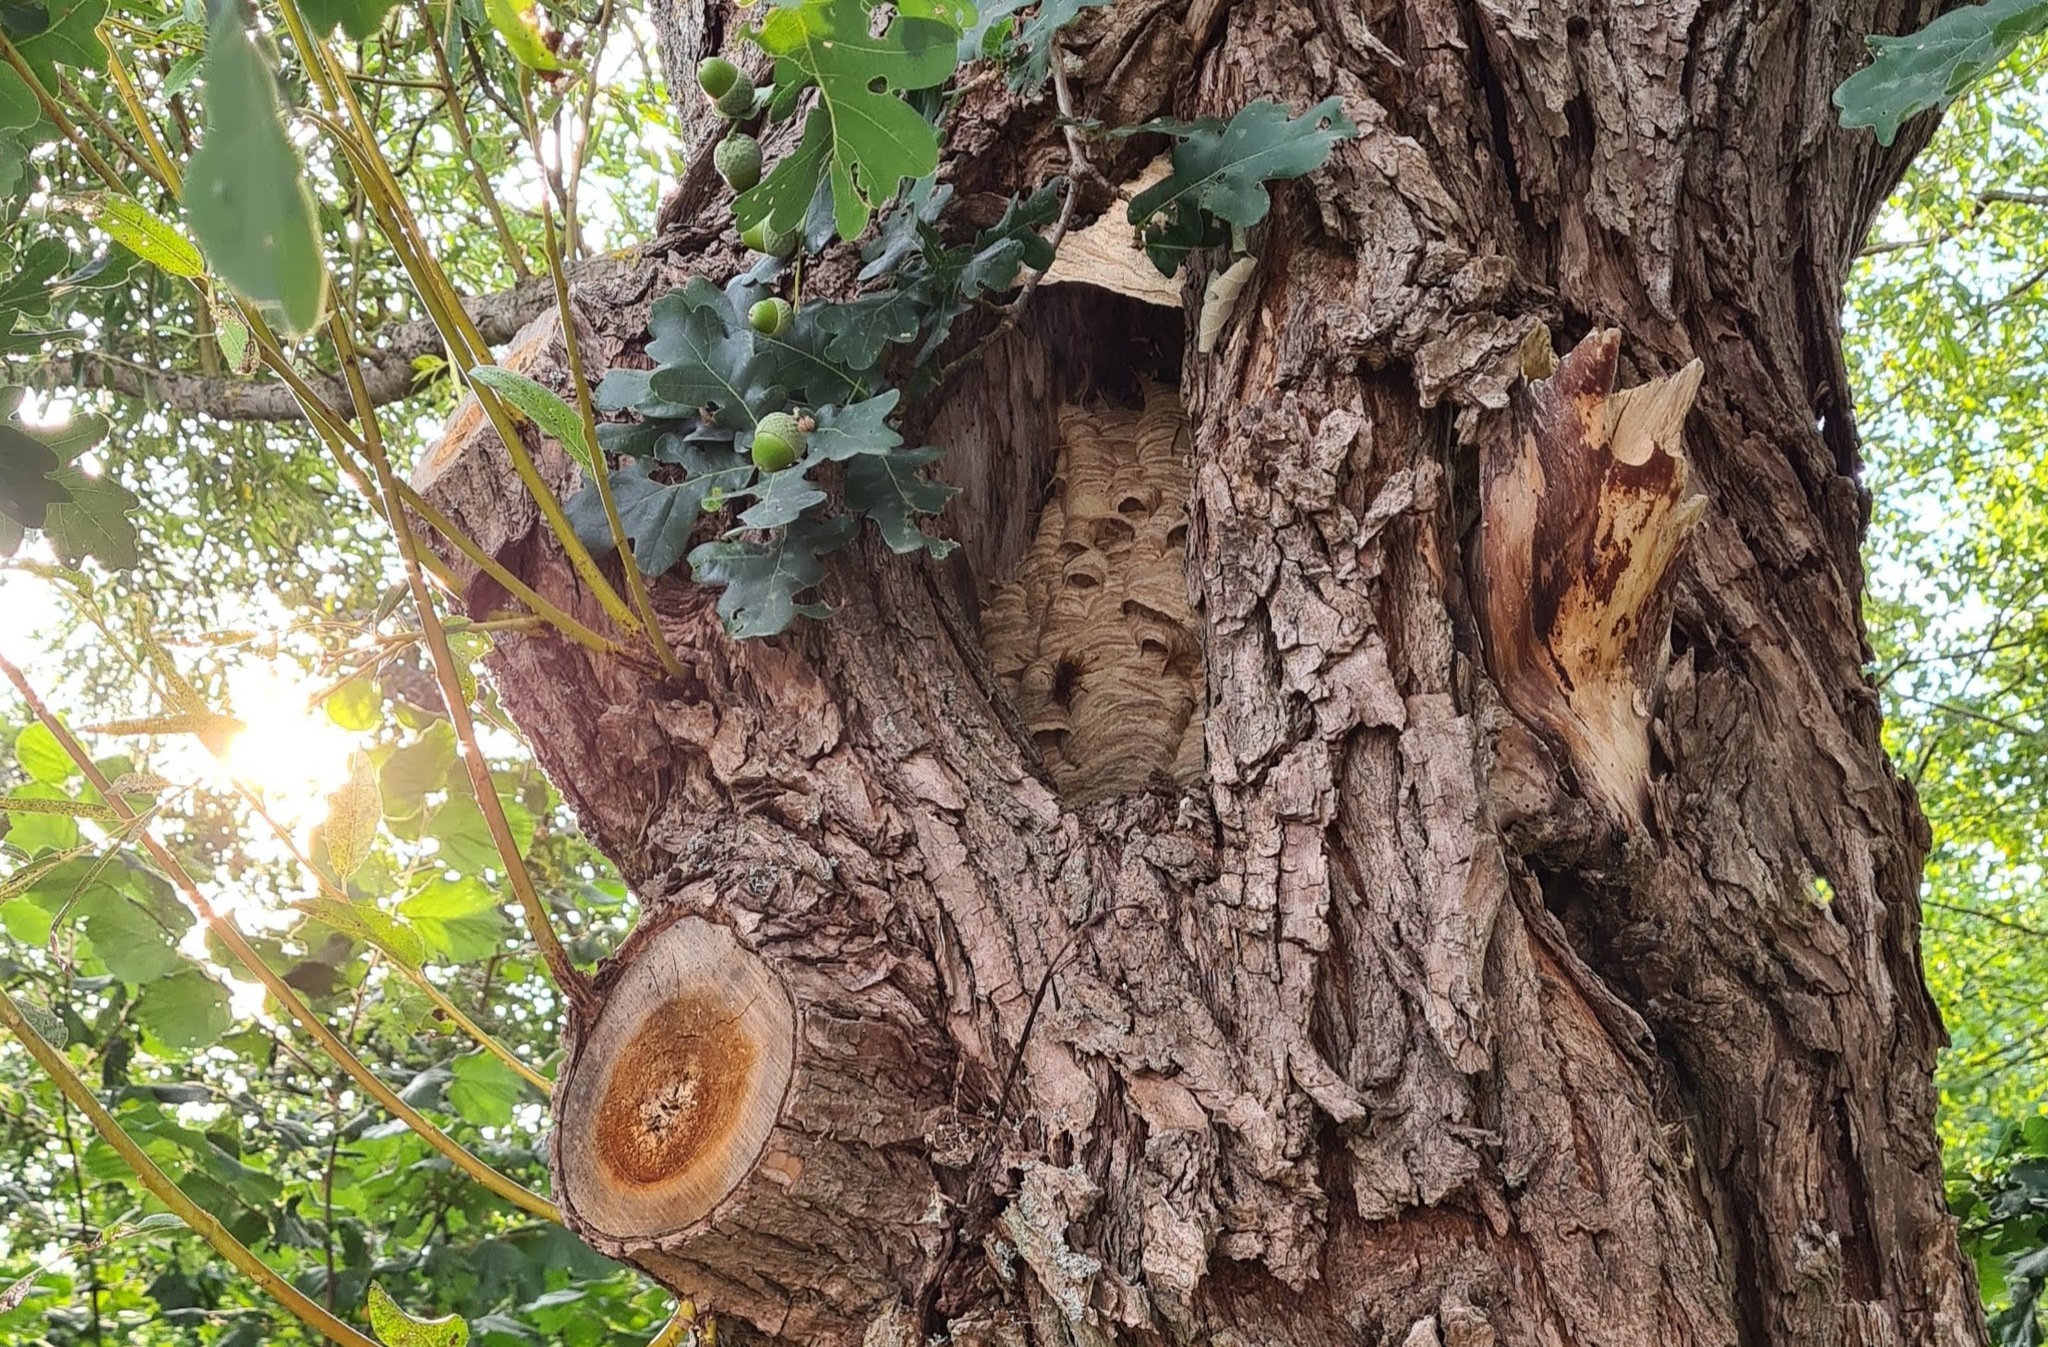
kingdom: Animalia
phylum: Arthropoda
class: Insecta
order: Hymenoptera
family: Vespidae
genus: Vespa
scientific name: Vespa crabro
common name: Hornet
